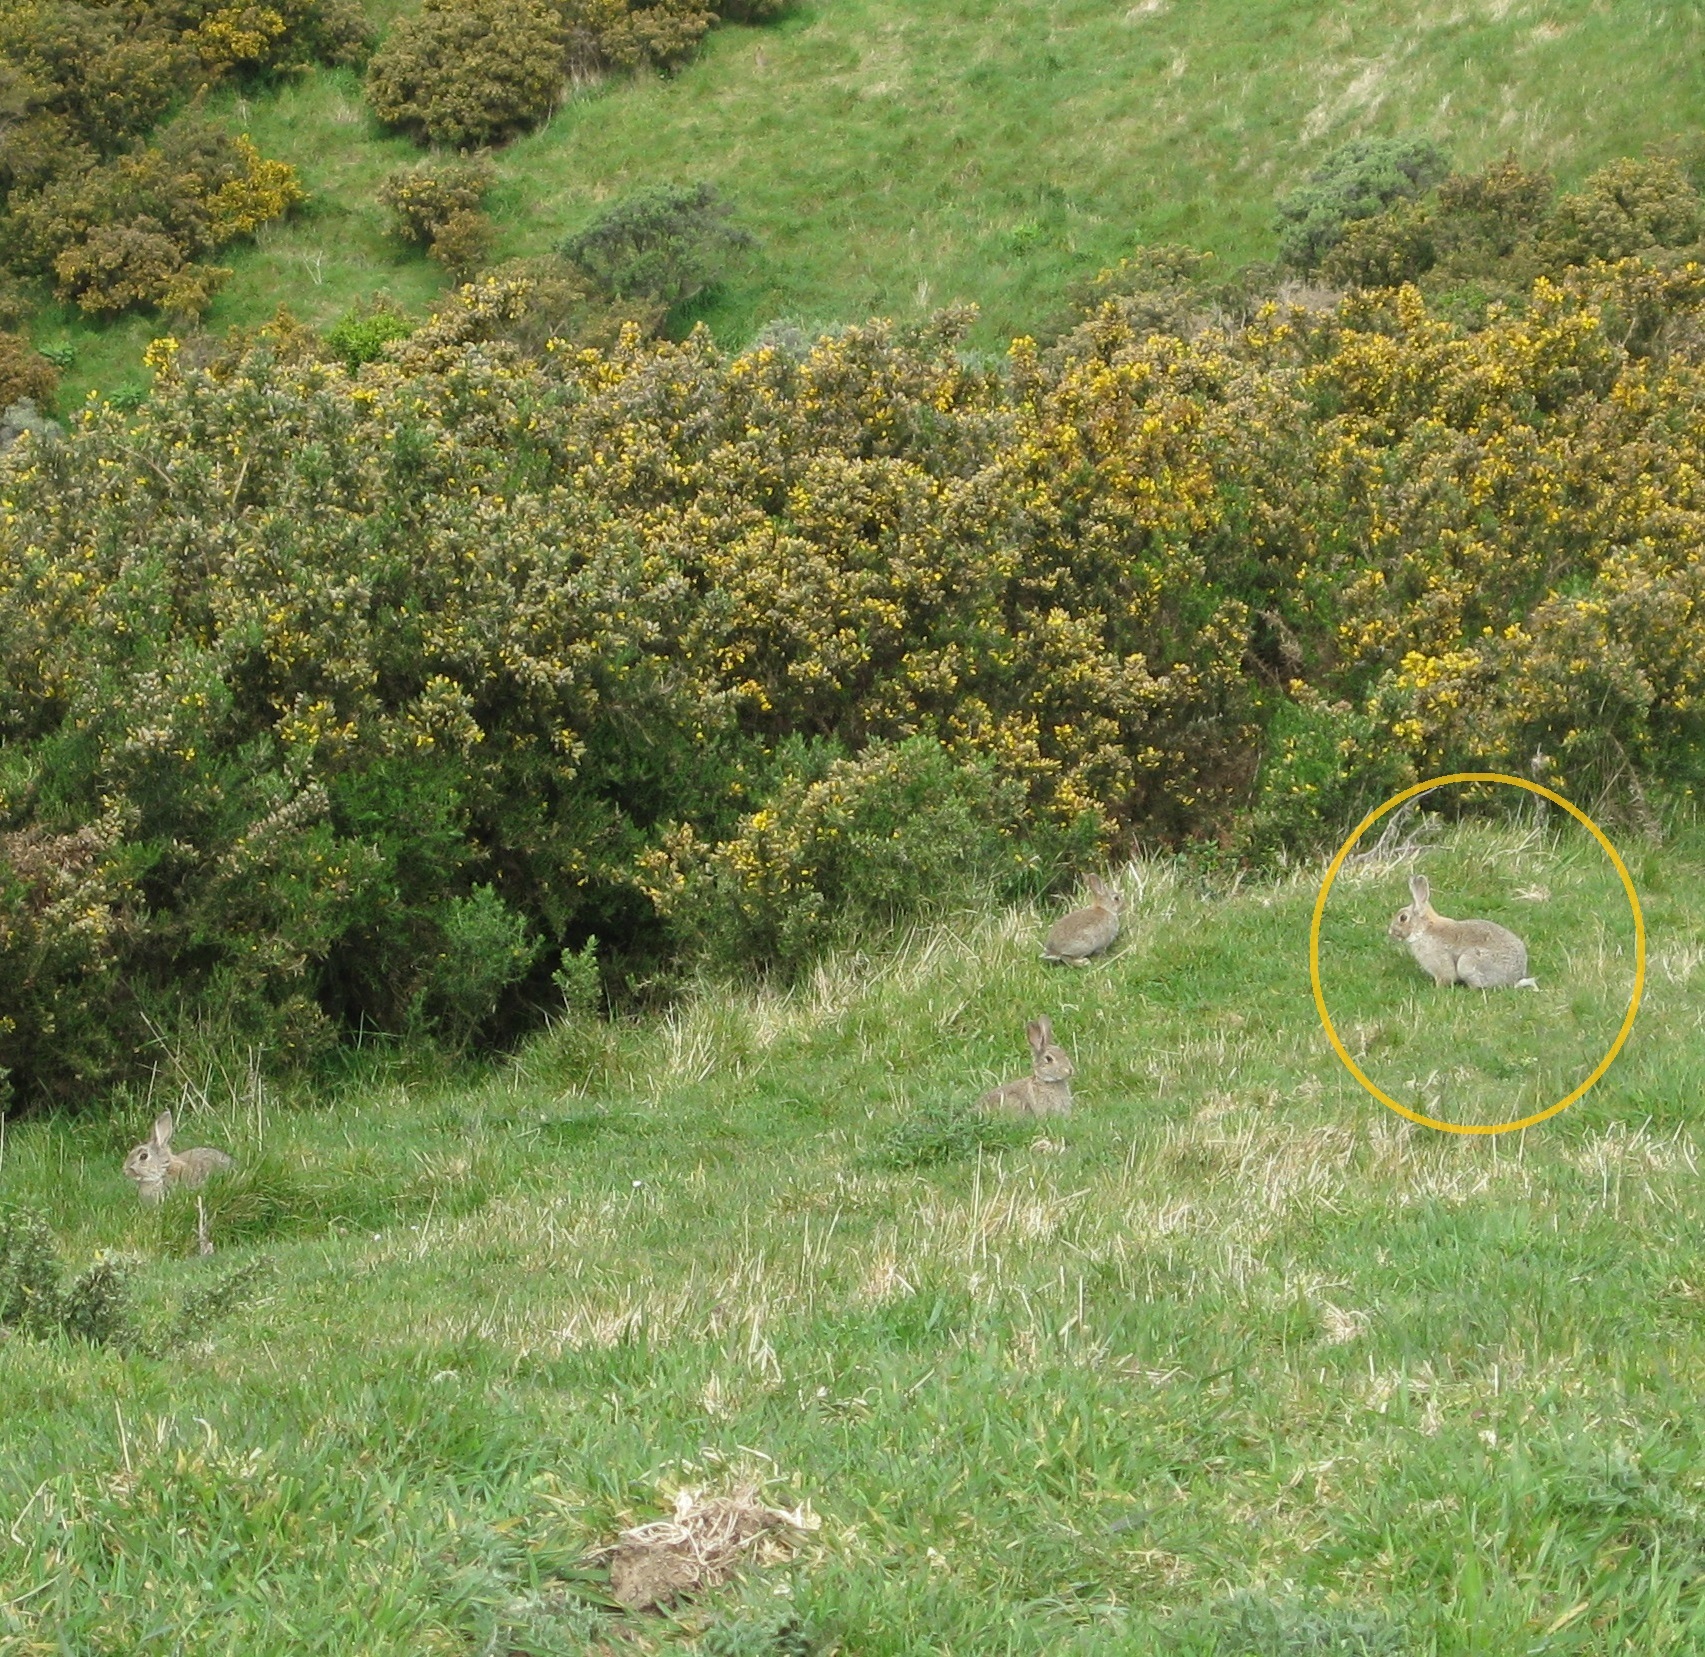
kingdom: Animalia
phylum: Chordata
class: Mammalia
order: Lagomorpha
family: Leporidae
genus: Oryctolagus
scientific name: Oryctolagus cuniculus
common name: European rabbit
